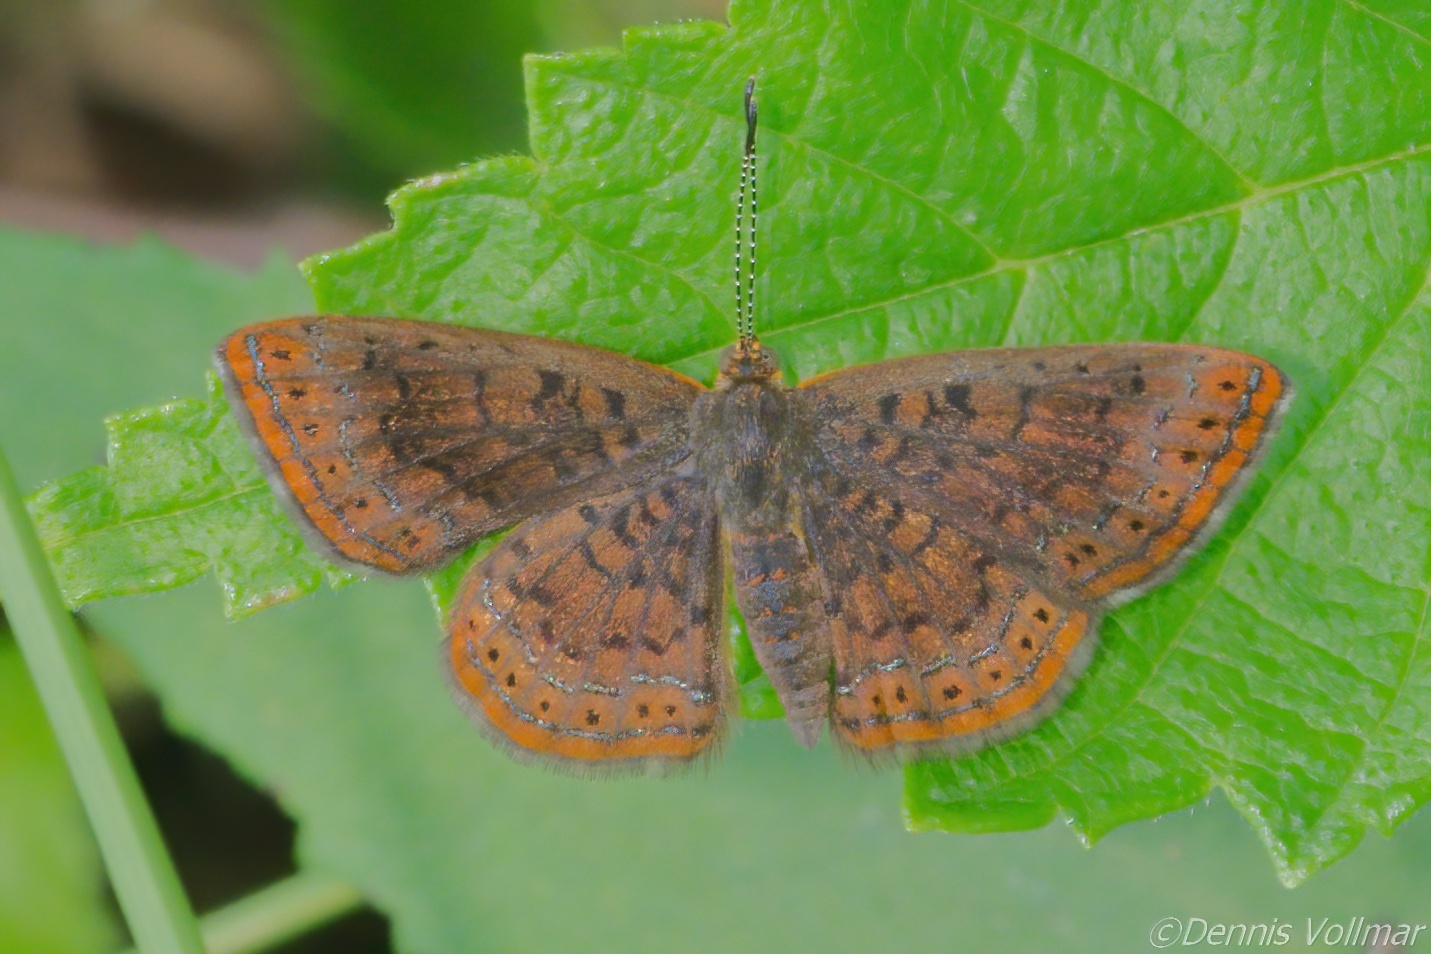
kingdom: Animalia
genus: Calephelis
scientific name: Calephelis borealis
